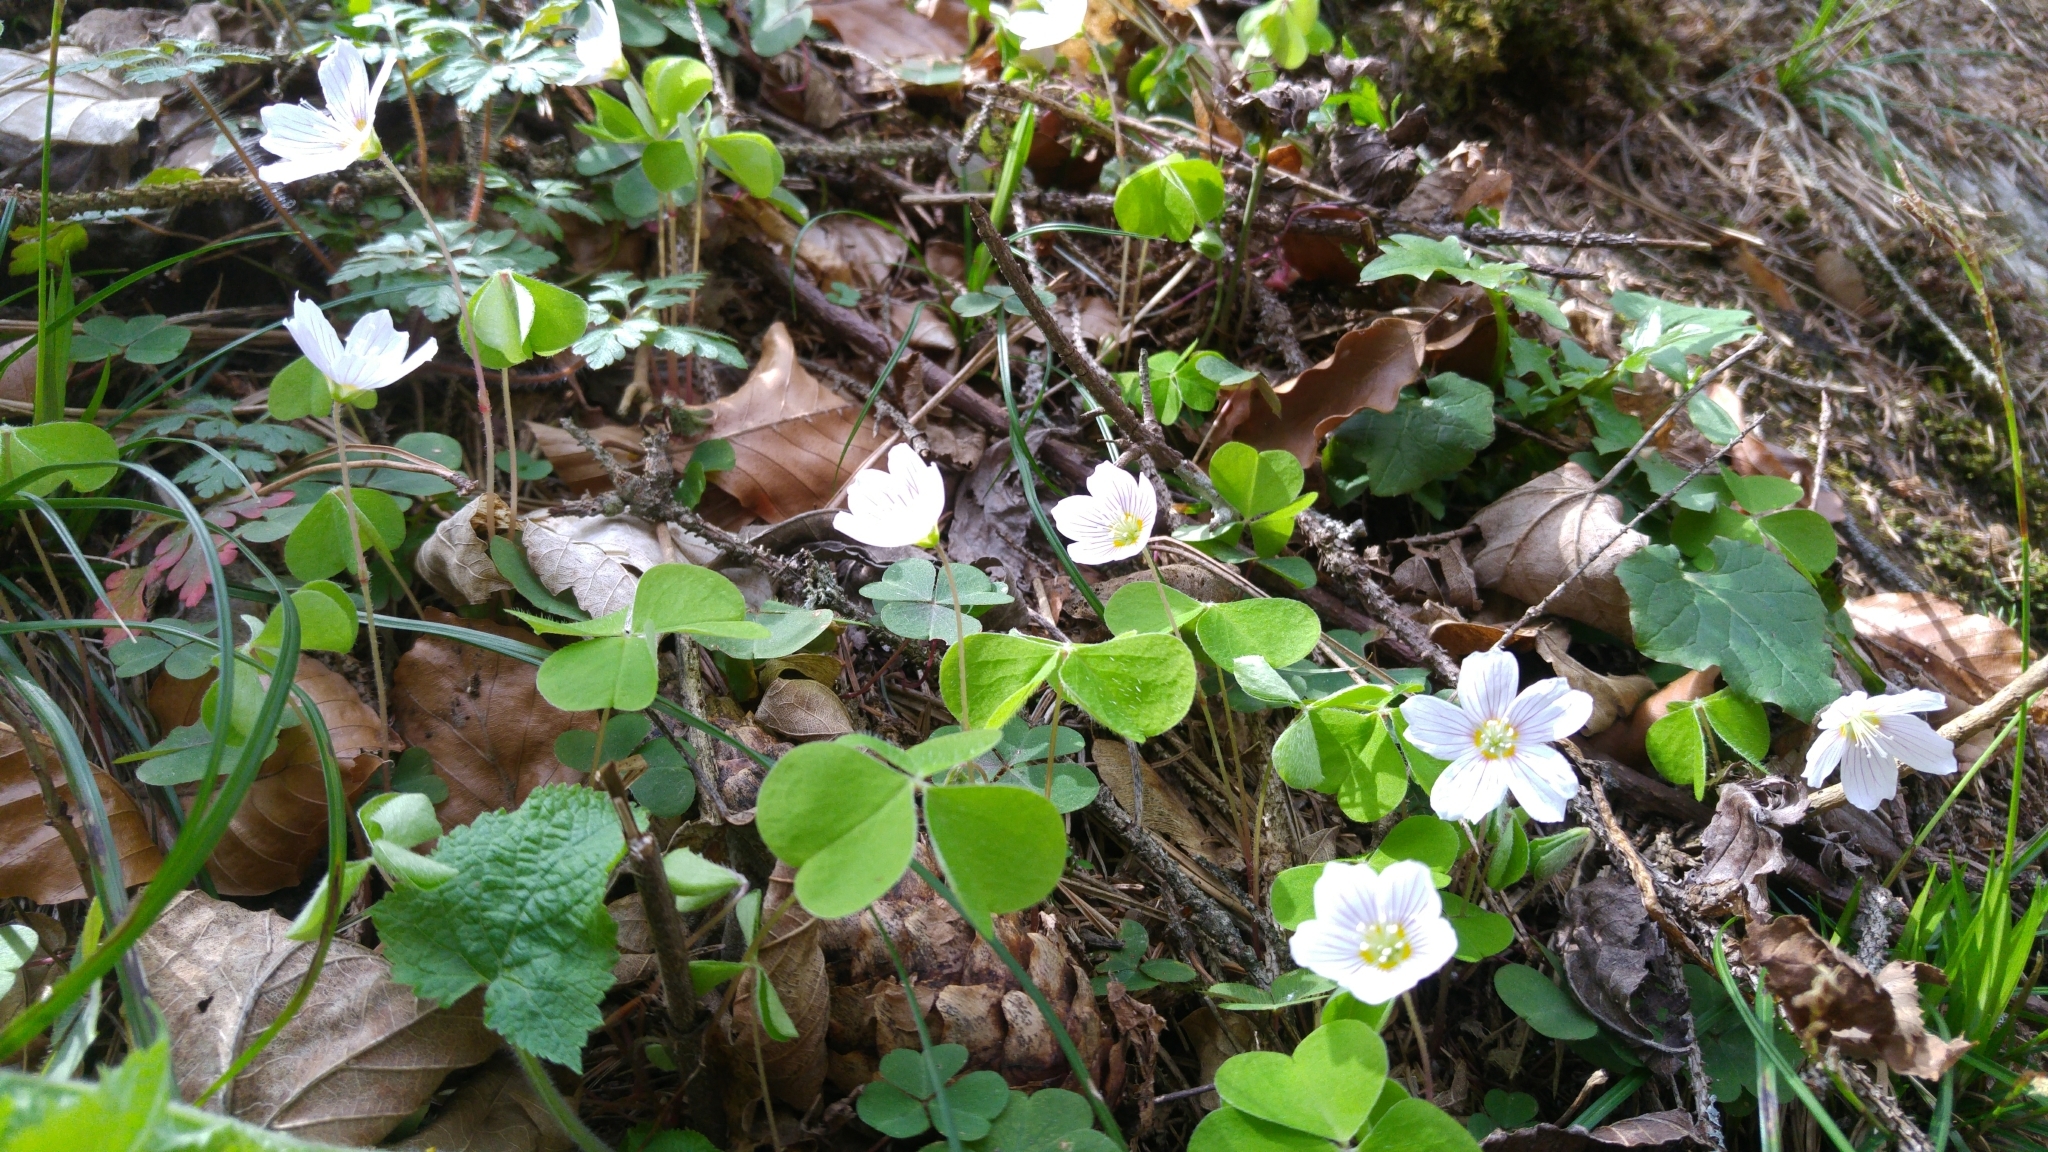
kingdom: Plantae
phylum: Tracheophyta
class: Magnoliopsida
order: Oxalidales
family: Oxalidaceae
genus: Oxalis
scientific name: Oxalis acetosella
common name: Wood-sorrel
